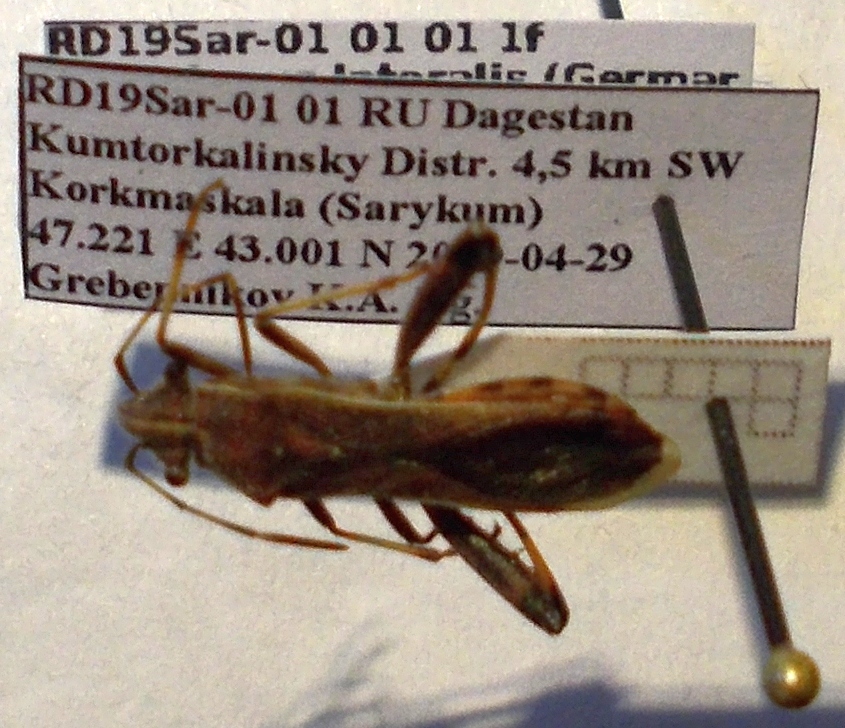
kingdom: Animalia
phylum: Arthropoda
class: Insecta
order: Hemiptera
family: Alydidae
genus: Camptopus
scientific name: Camptopus lateralis
